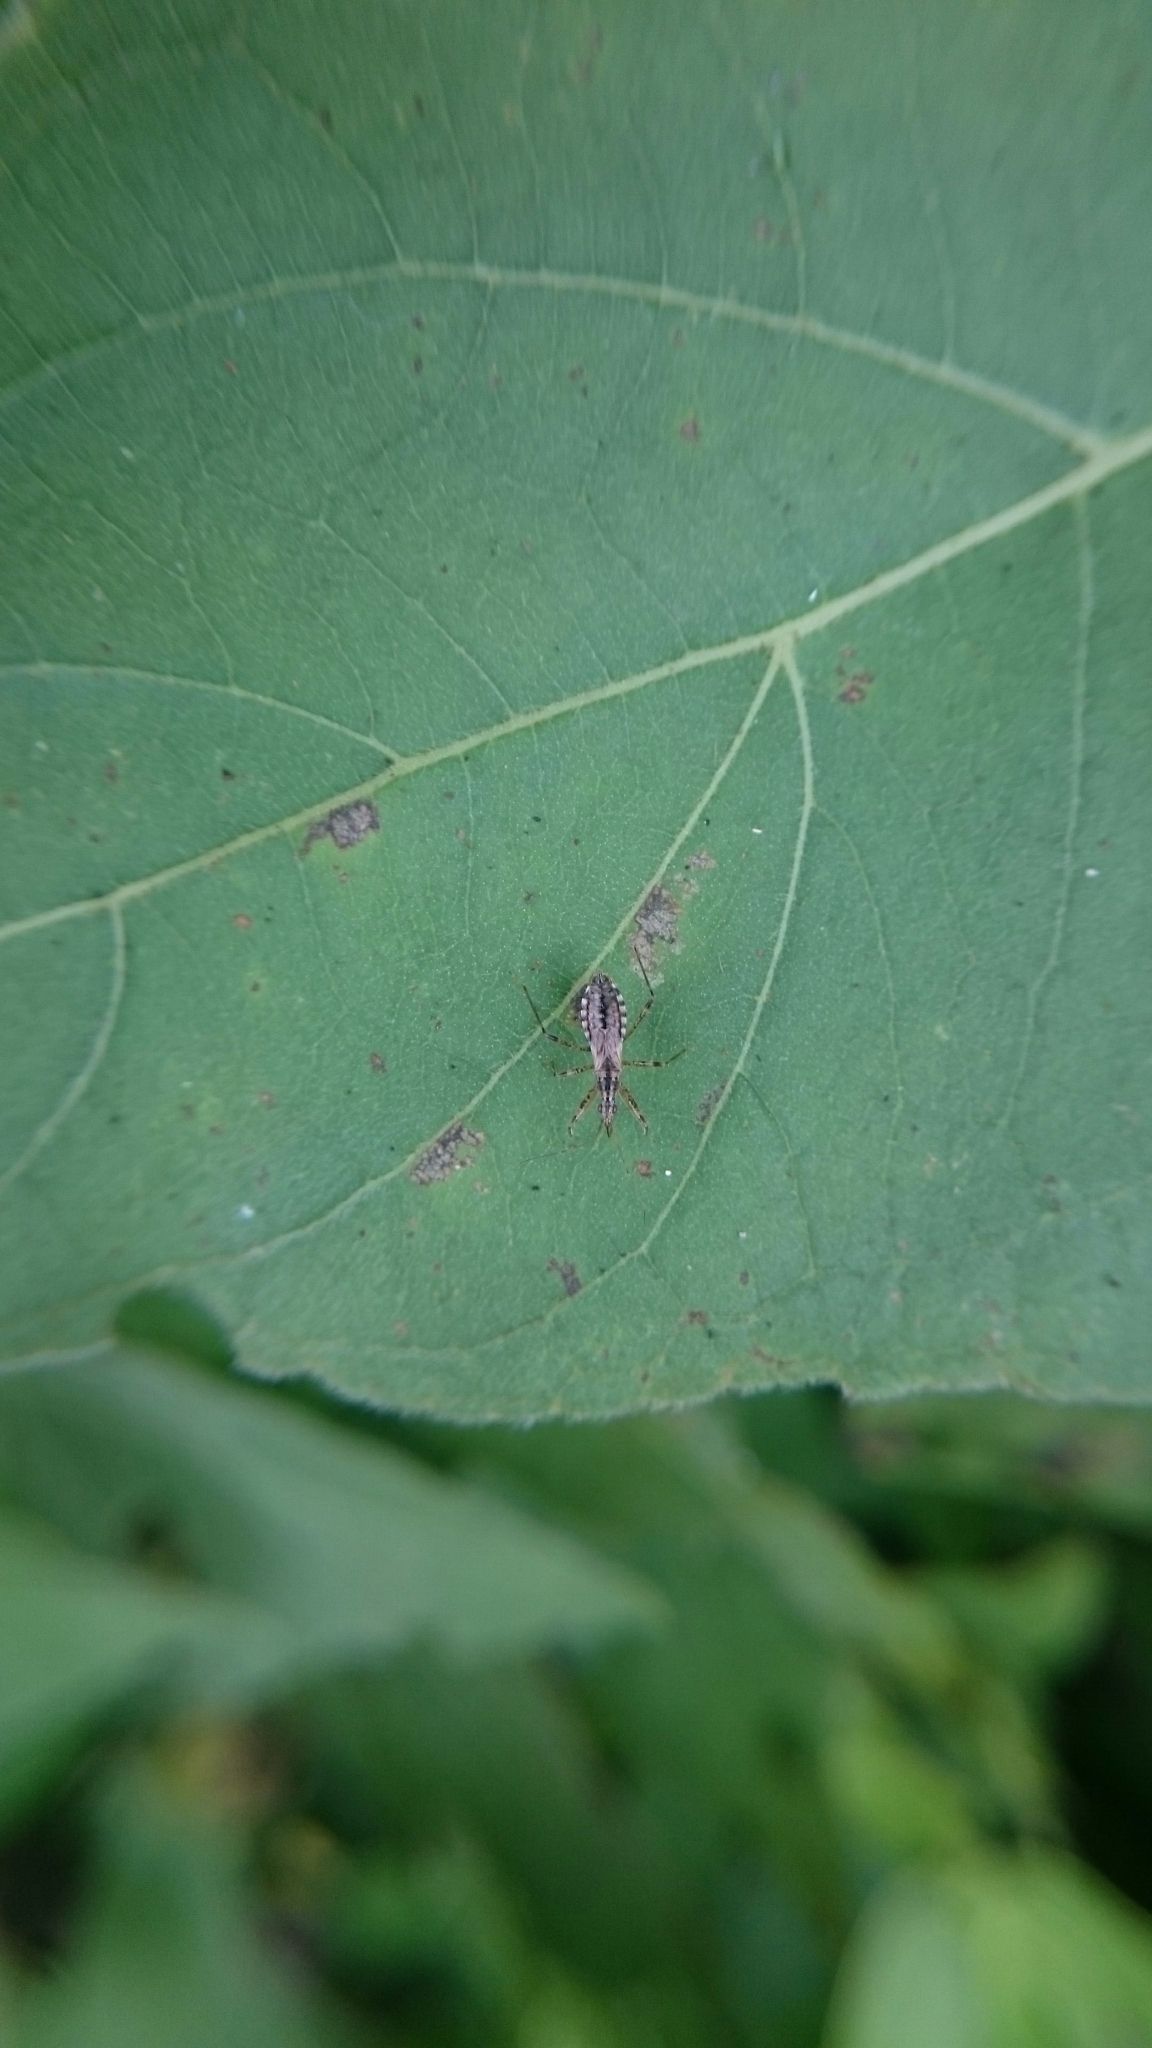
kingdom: Animalia
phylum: Arthropoda
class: Insecta
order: Hemiptera
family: Nabidae
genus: Nabis
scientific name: Nabis
